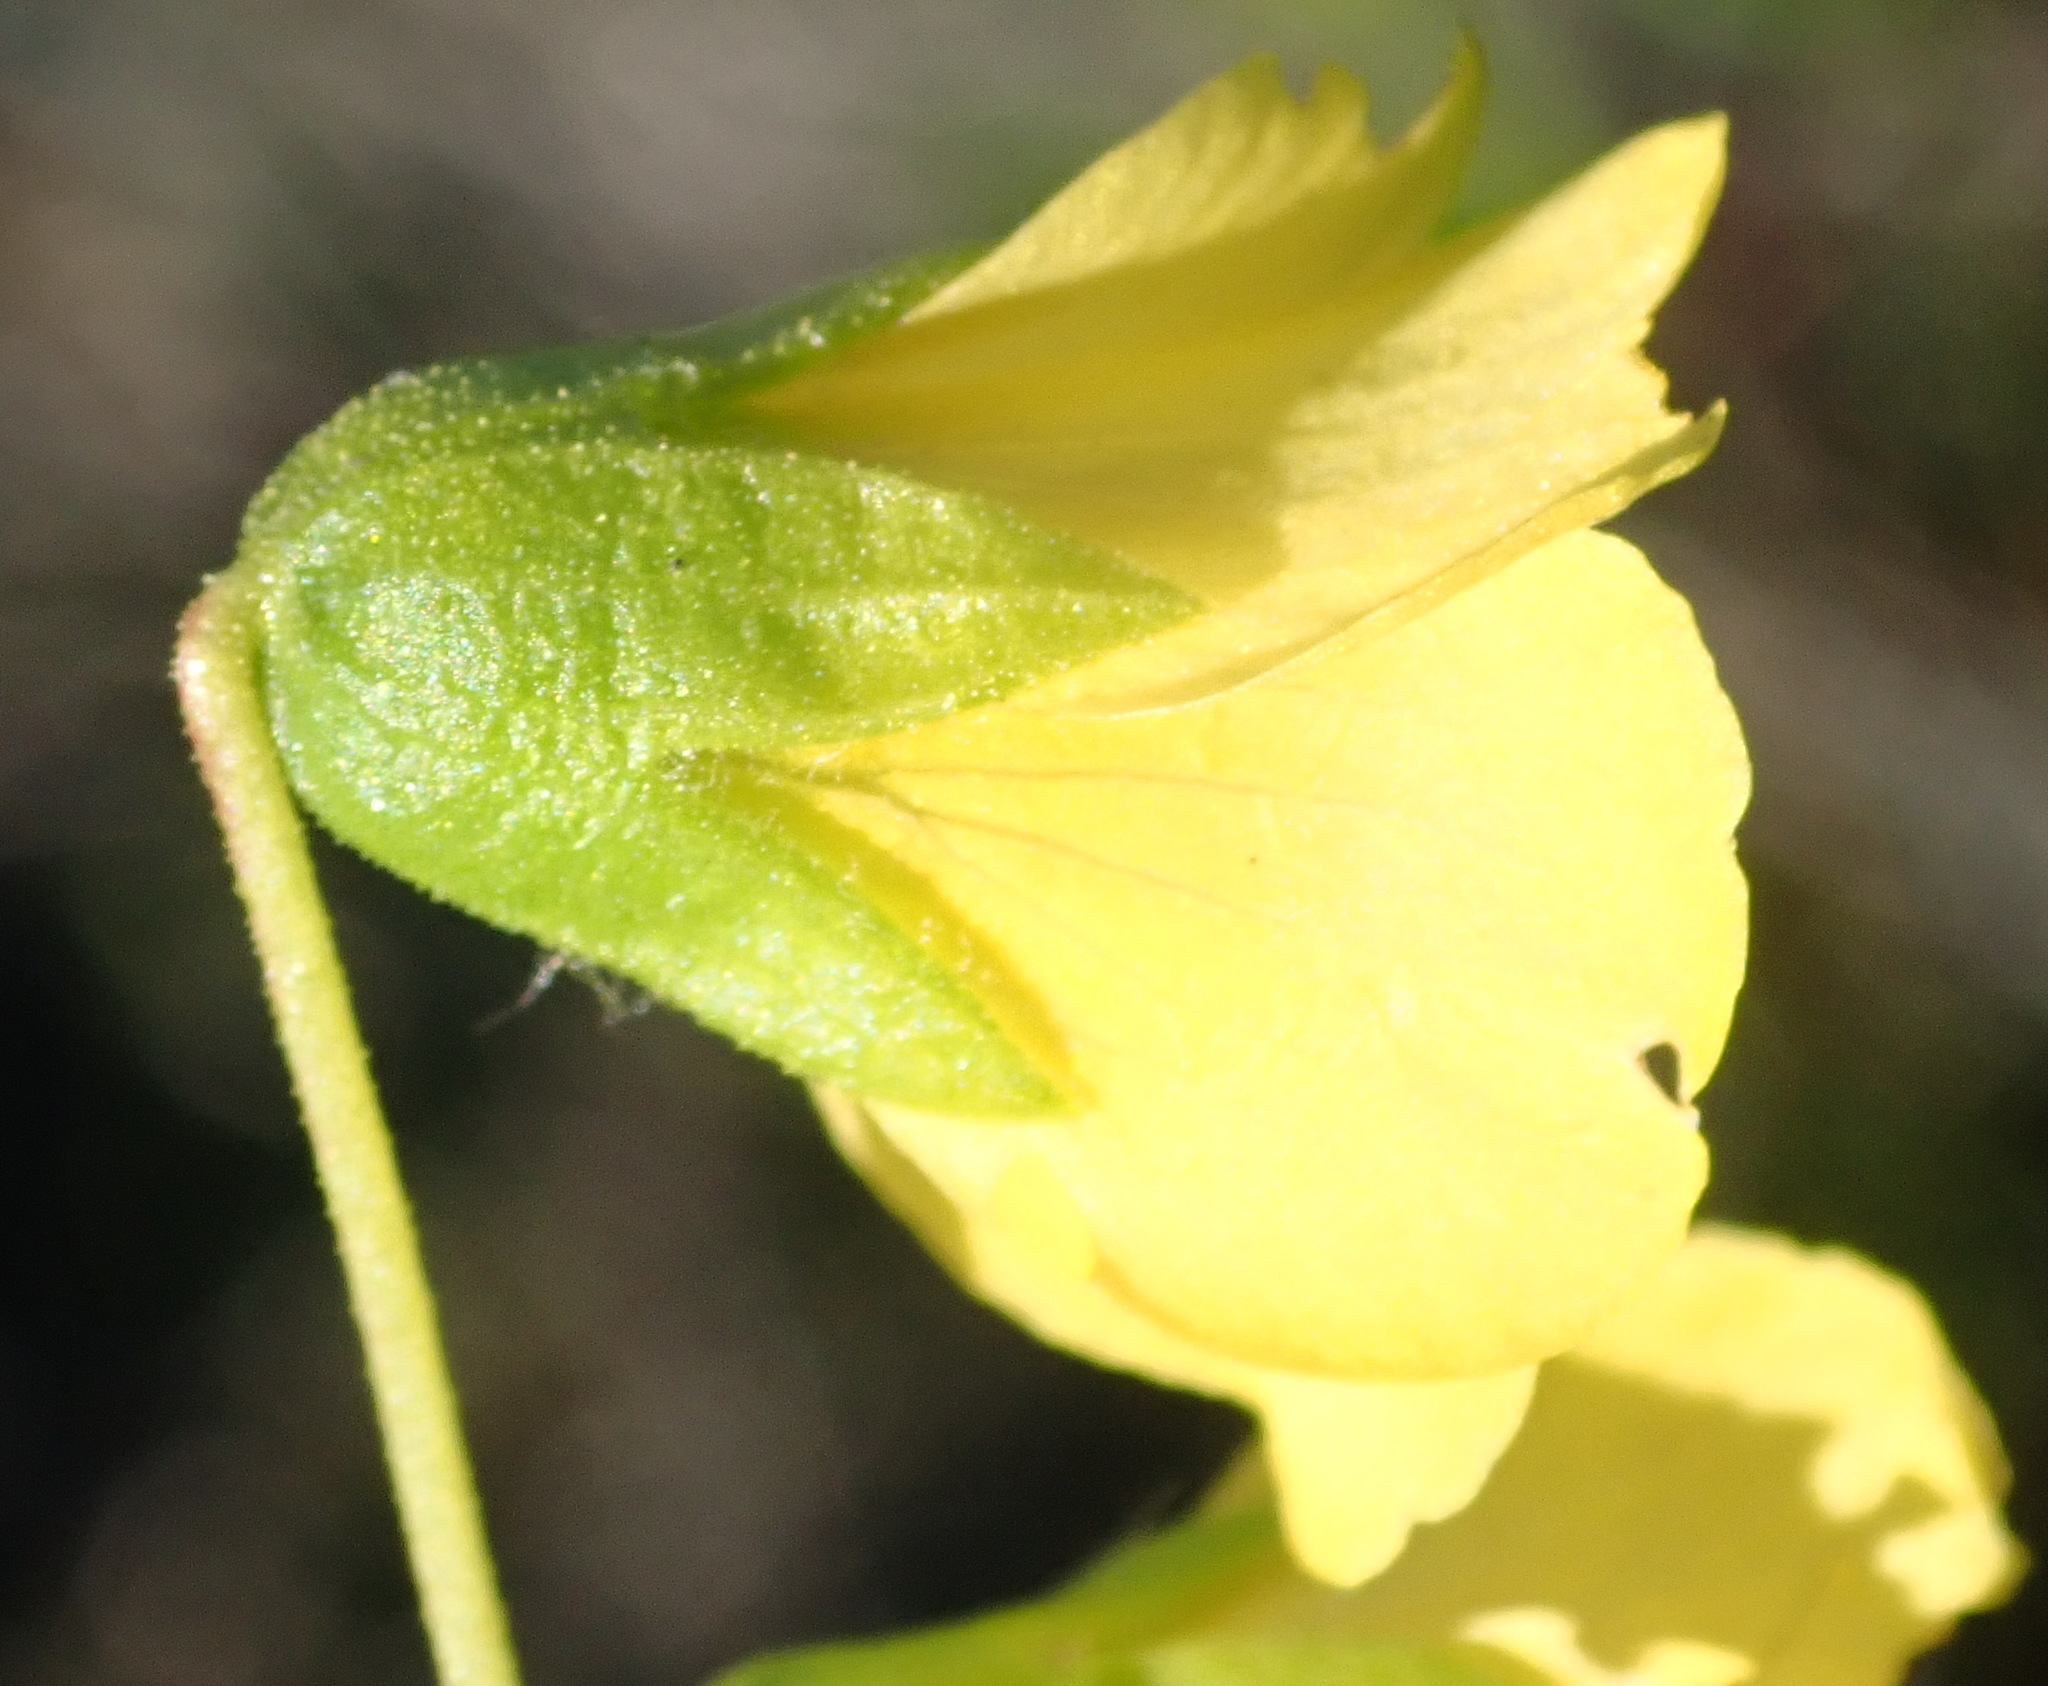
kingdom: Plantae
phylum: Tracheophyta
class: Magnoliopsida
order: Malvales
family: Malvaceae
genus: Hermannia
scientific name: Hermannia saccifera
